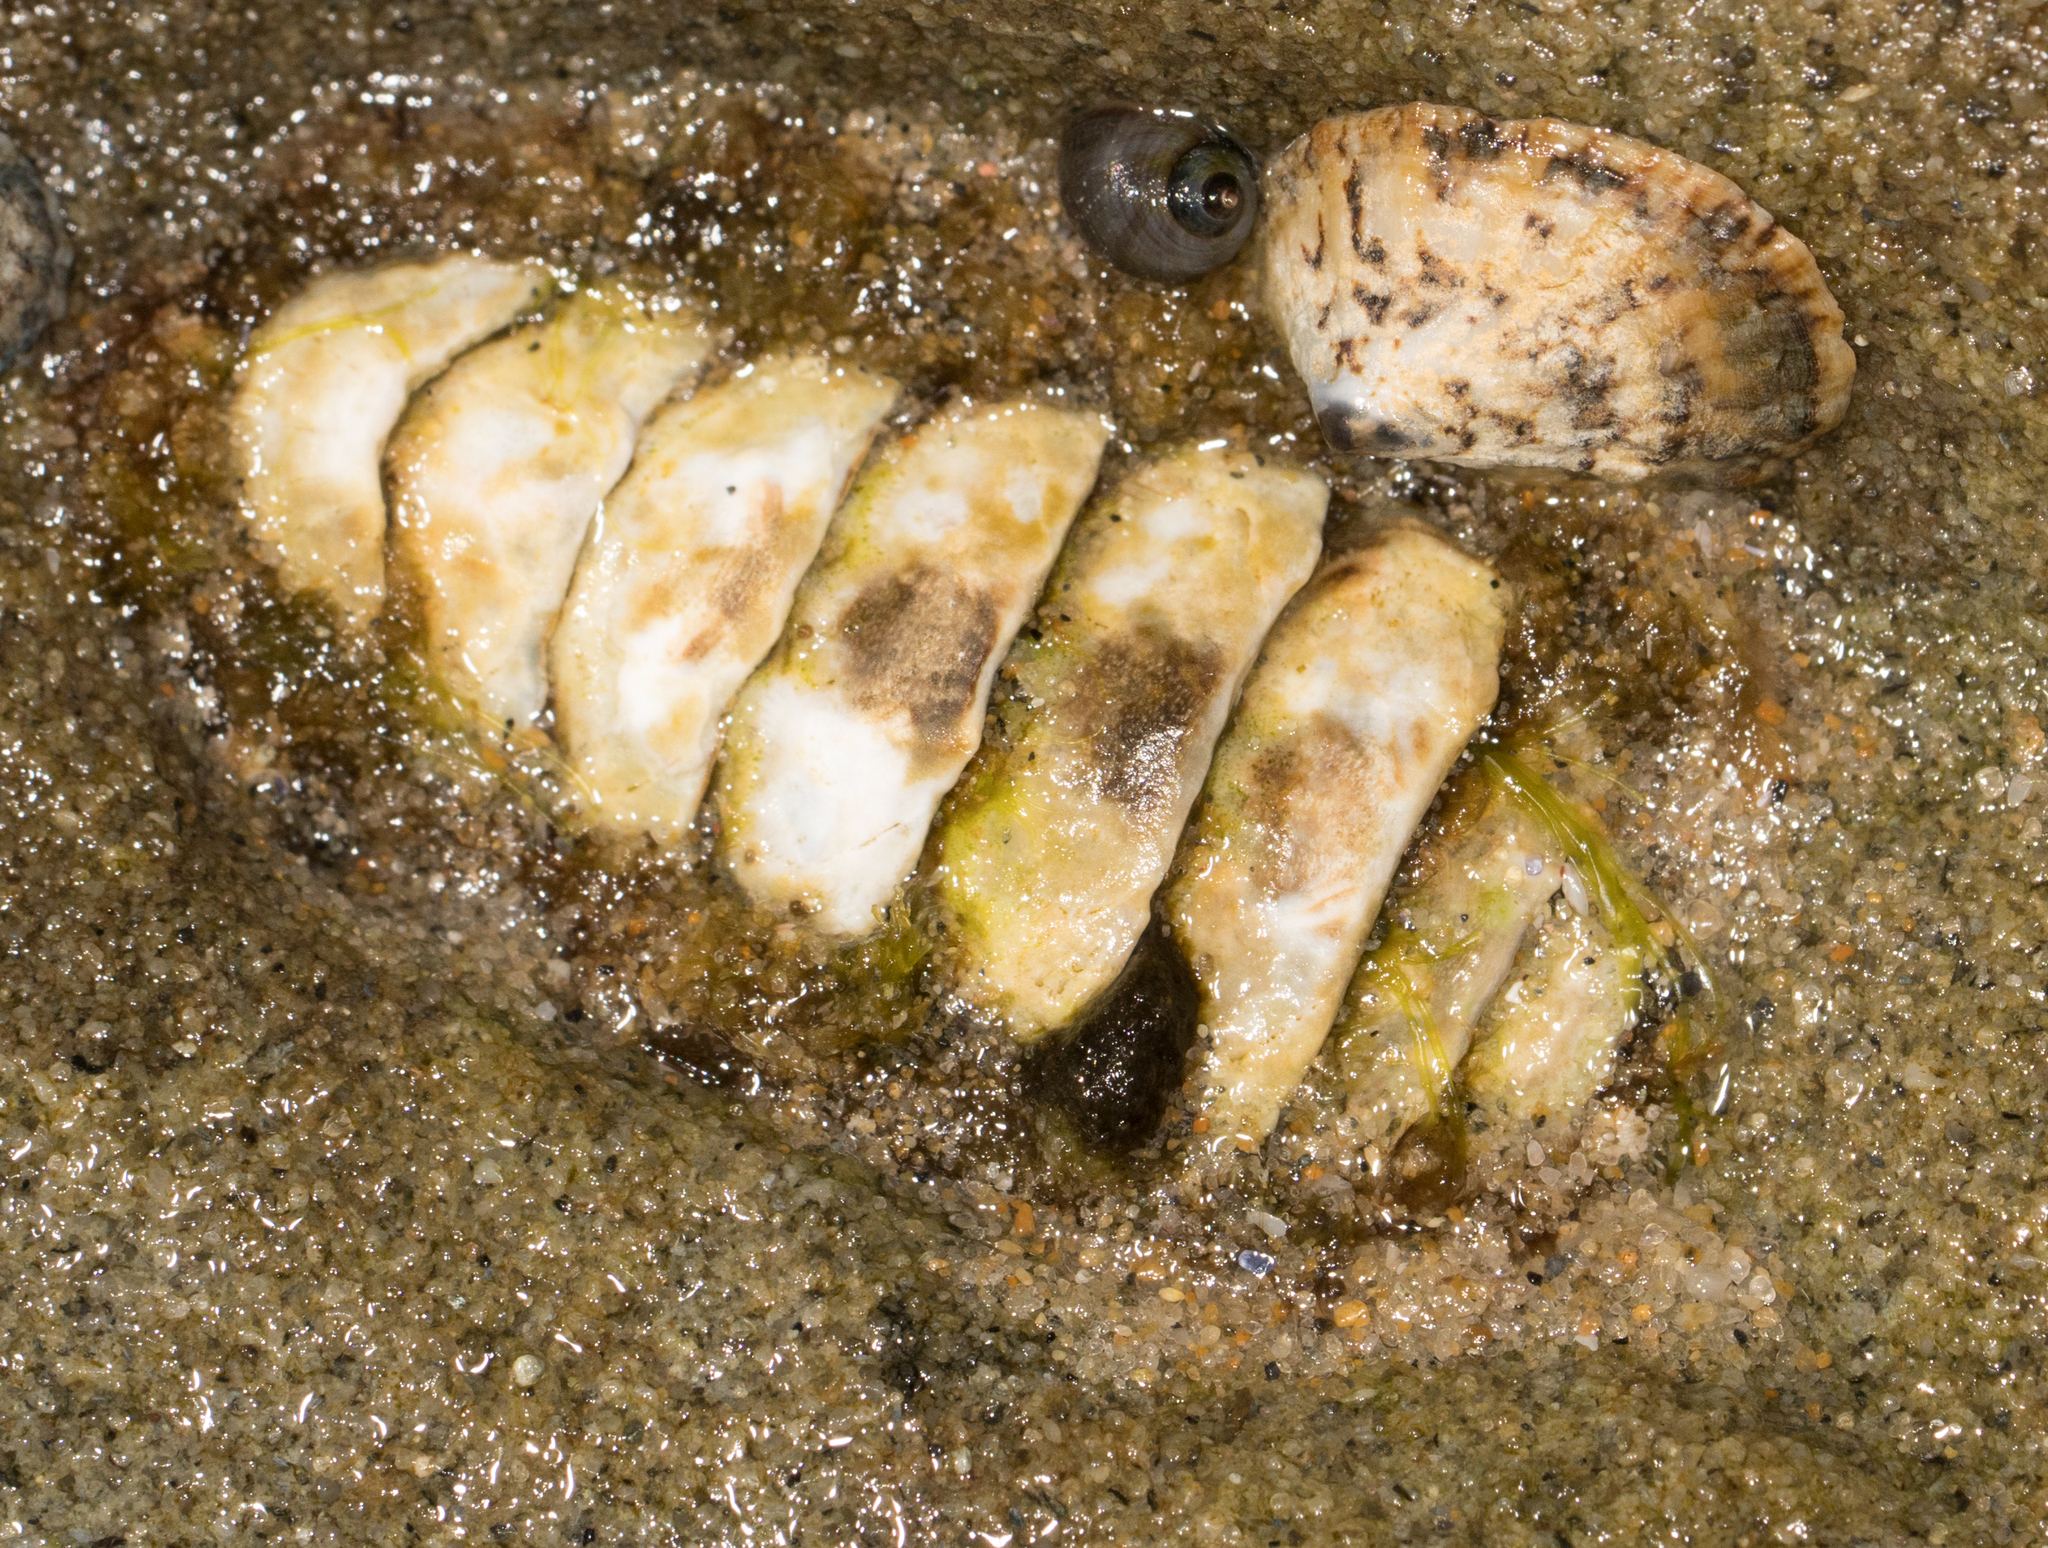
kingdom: Animalia
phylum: Mollusca
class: Polyplacophora
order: Chitonida
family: Tonicellidae
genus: Nuttallina
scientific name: Nuttallina californica
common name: California nuttall chiton
